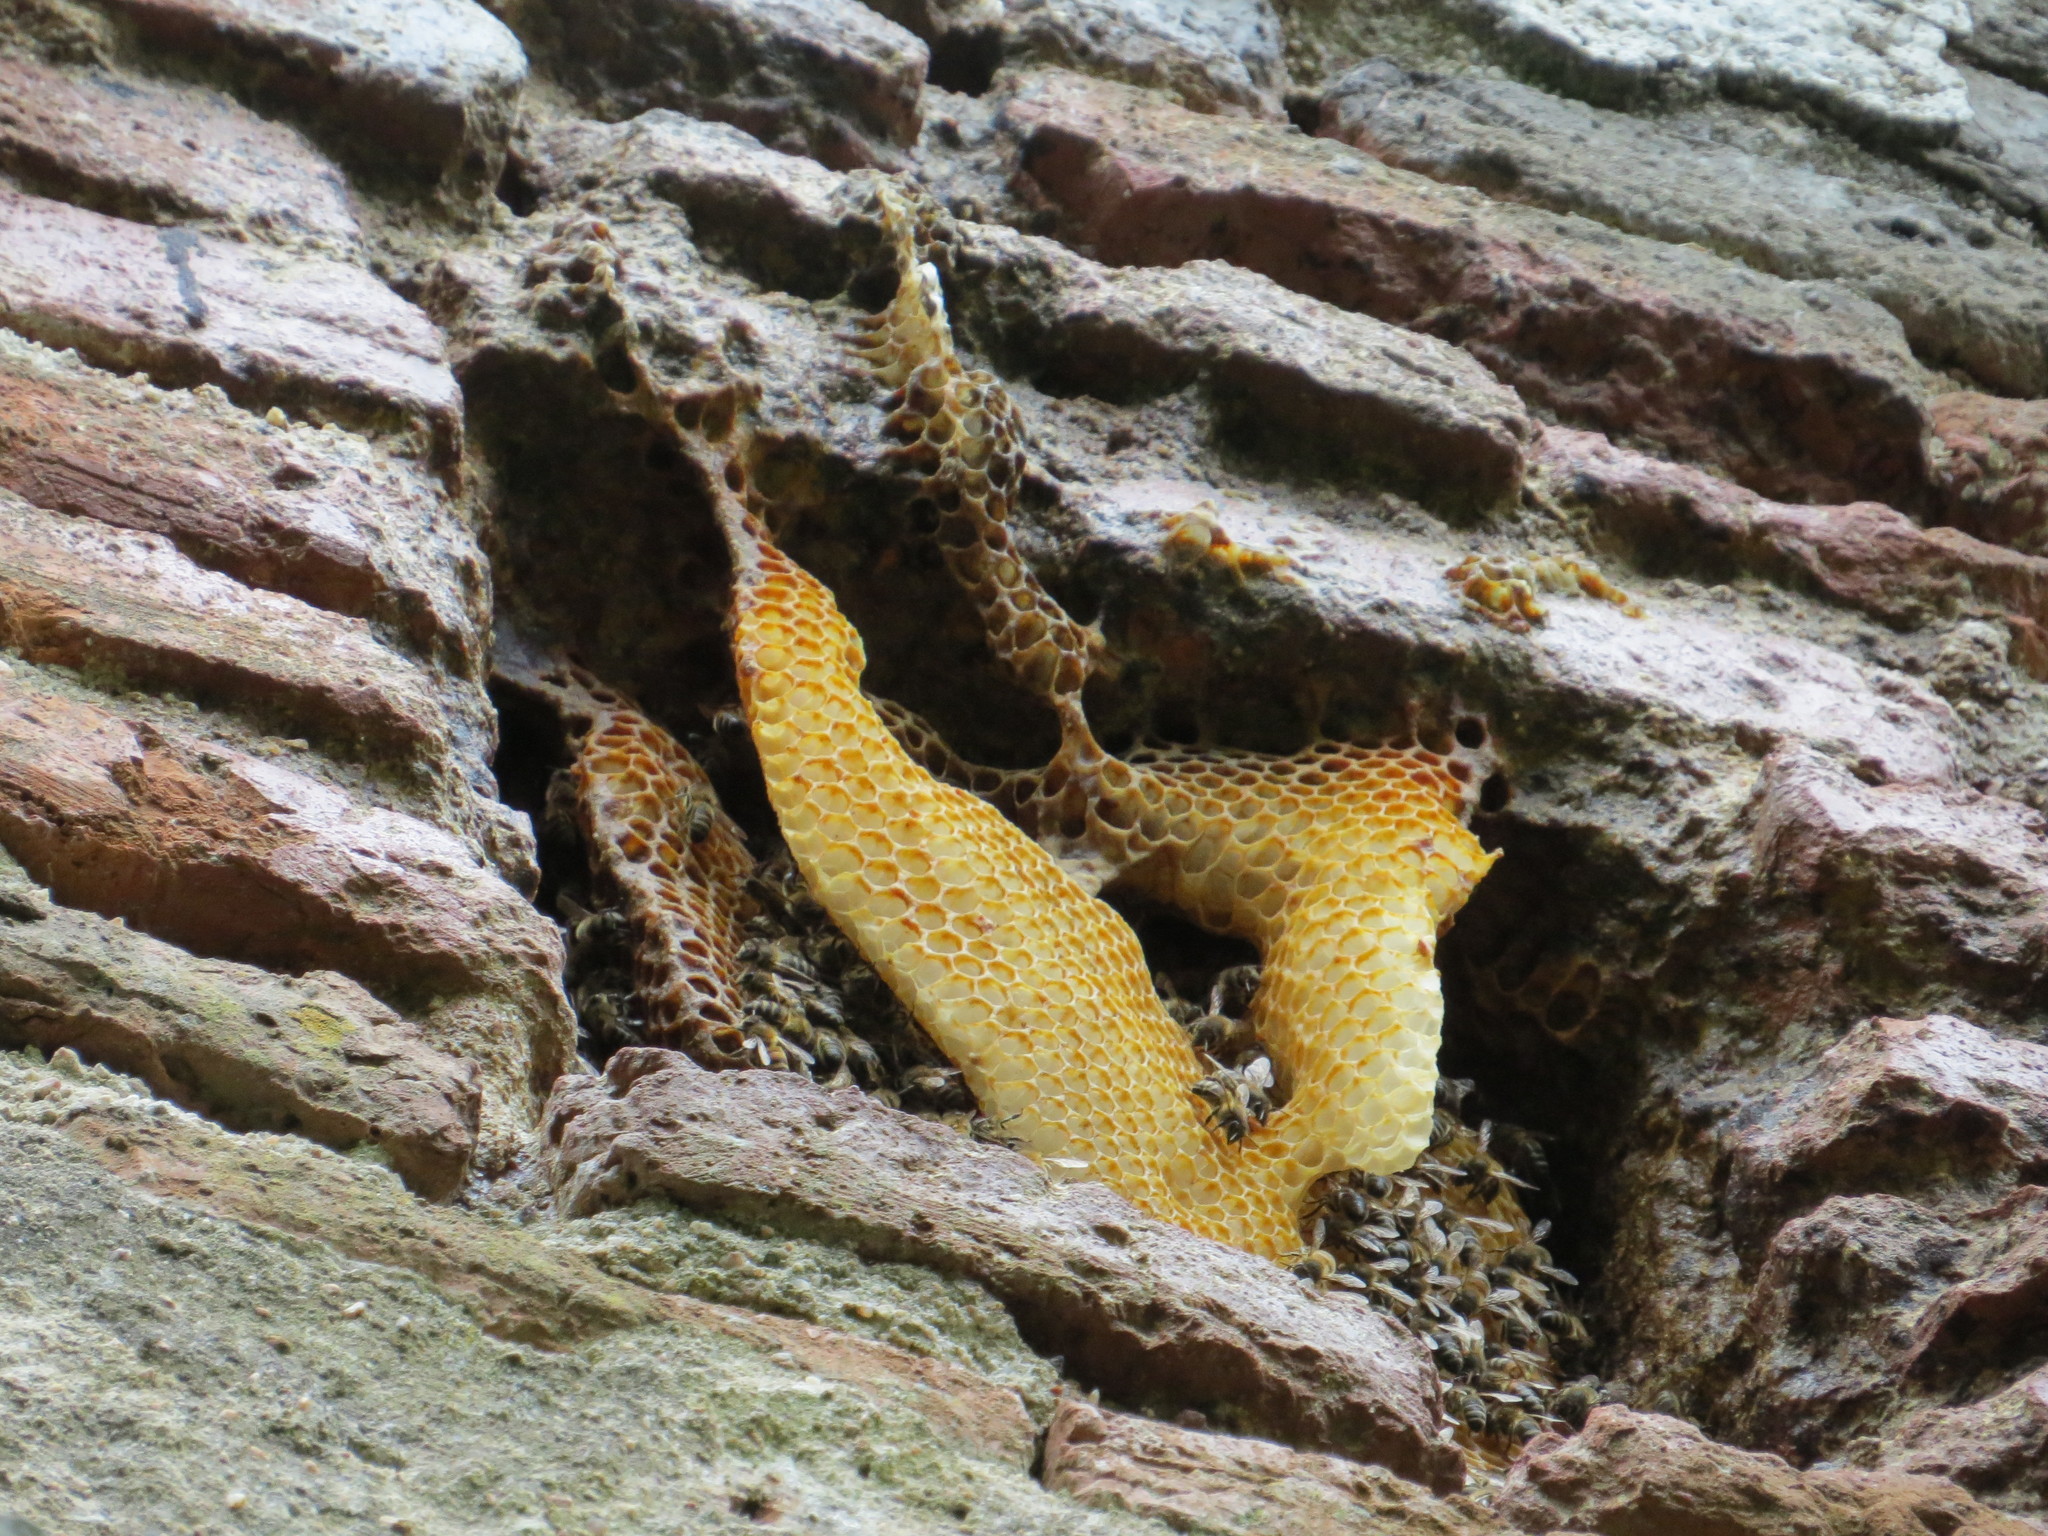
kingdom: Animalia
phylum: Arthropoda
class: Insecta
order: Hymenoptera
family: Apidae
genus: Apis
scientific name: Apis mellifera
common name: Honey bee
